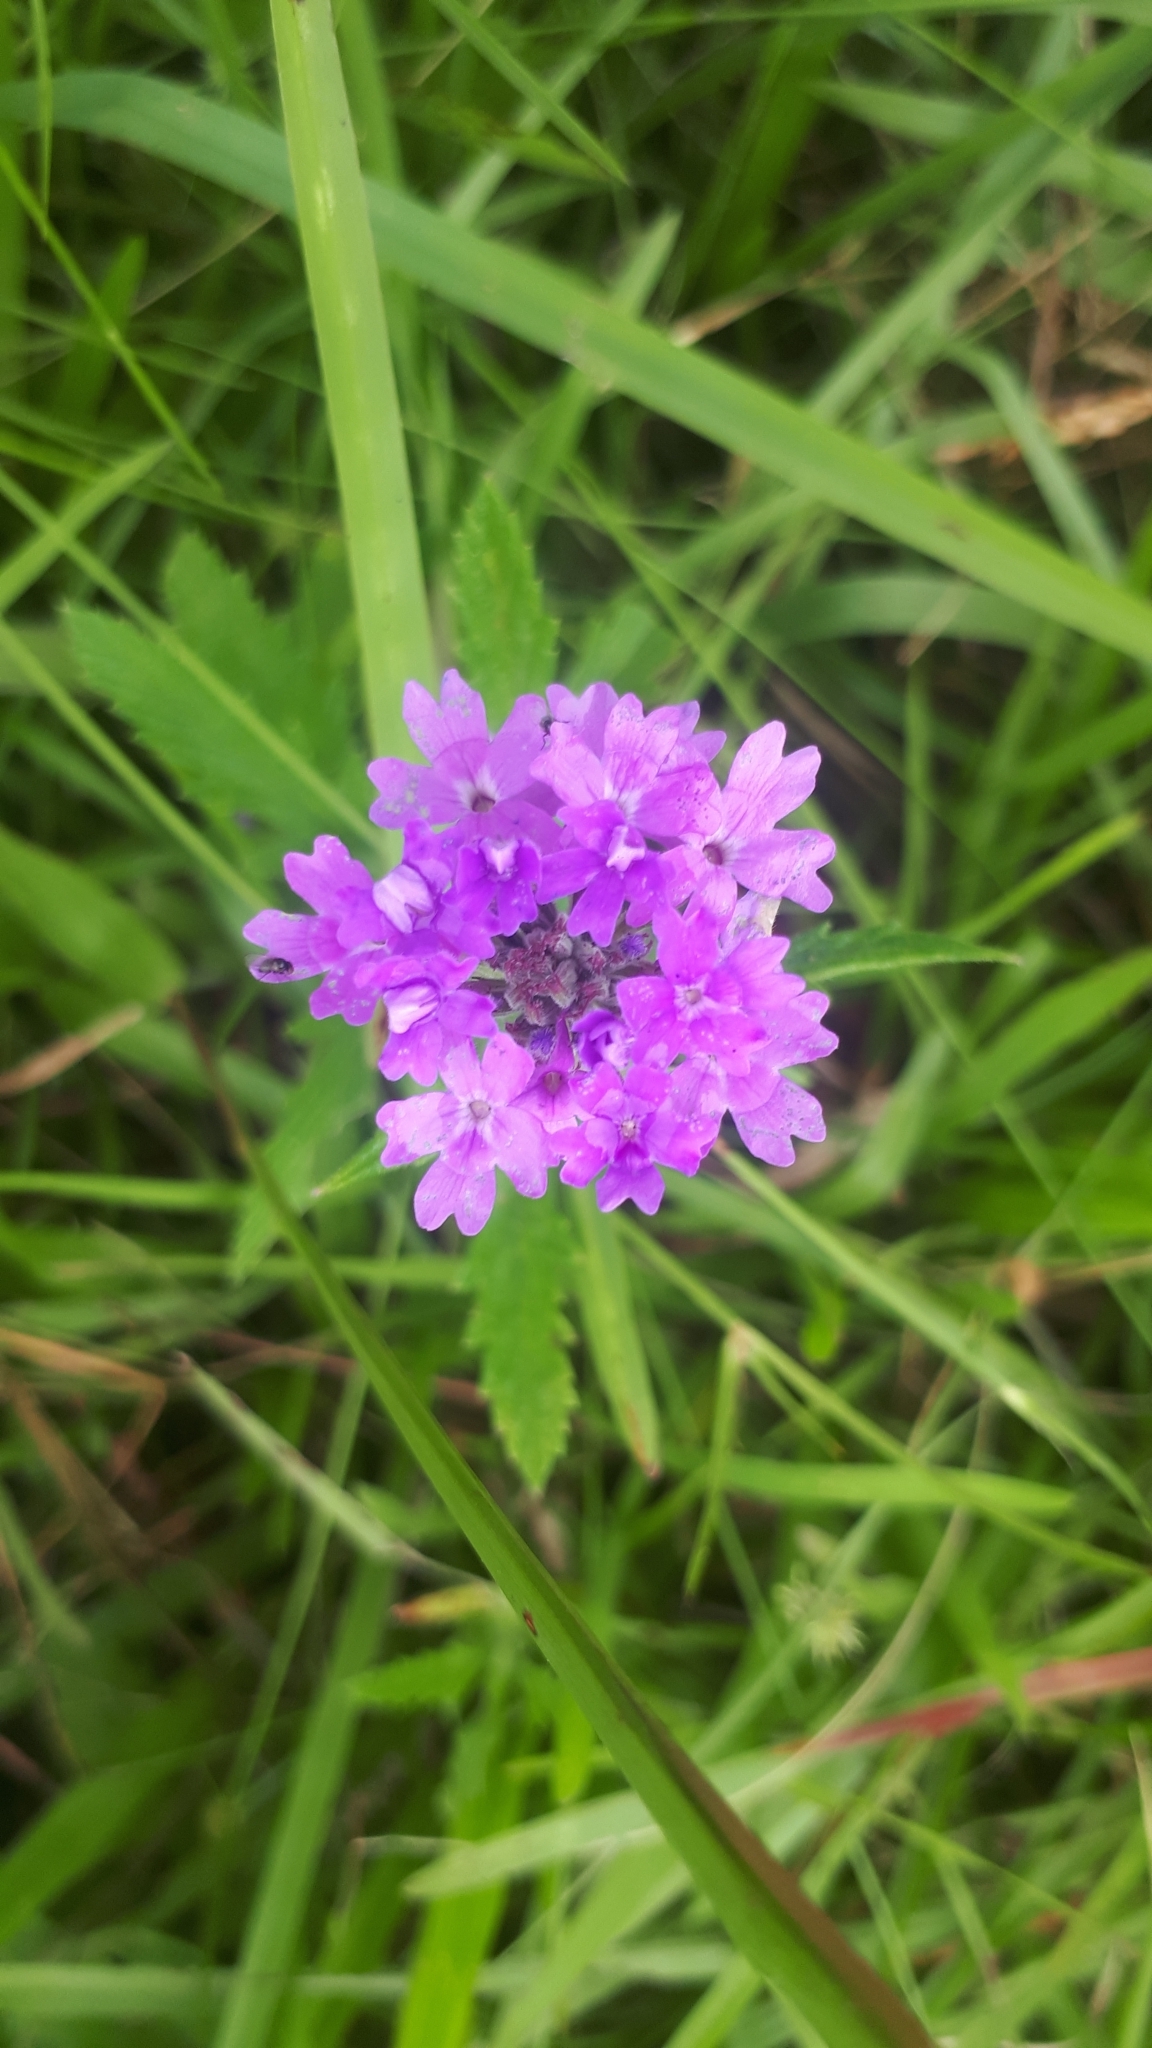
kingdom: Plantae
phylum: Tracheophyta
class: Magnoliopsida
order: Lamiales
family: Verbenaceae
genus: Verbena
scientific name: Verbena rigida
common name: Slender vervain
